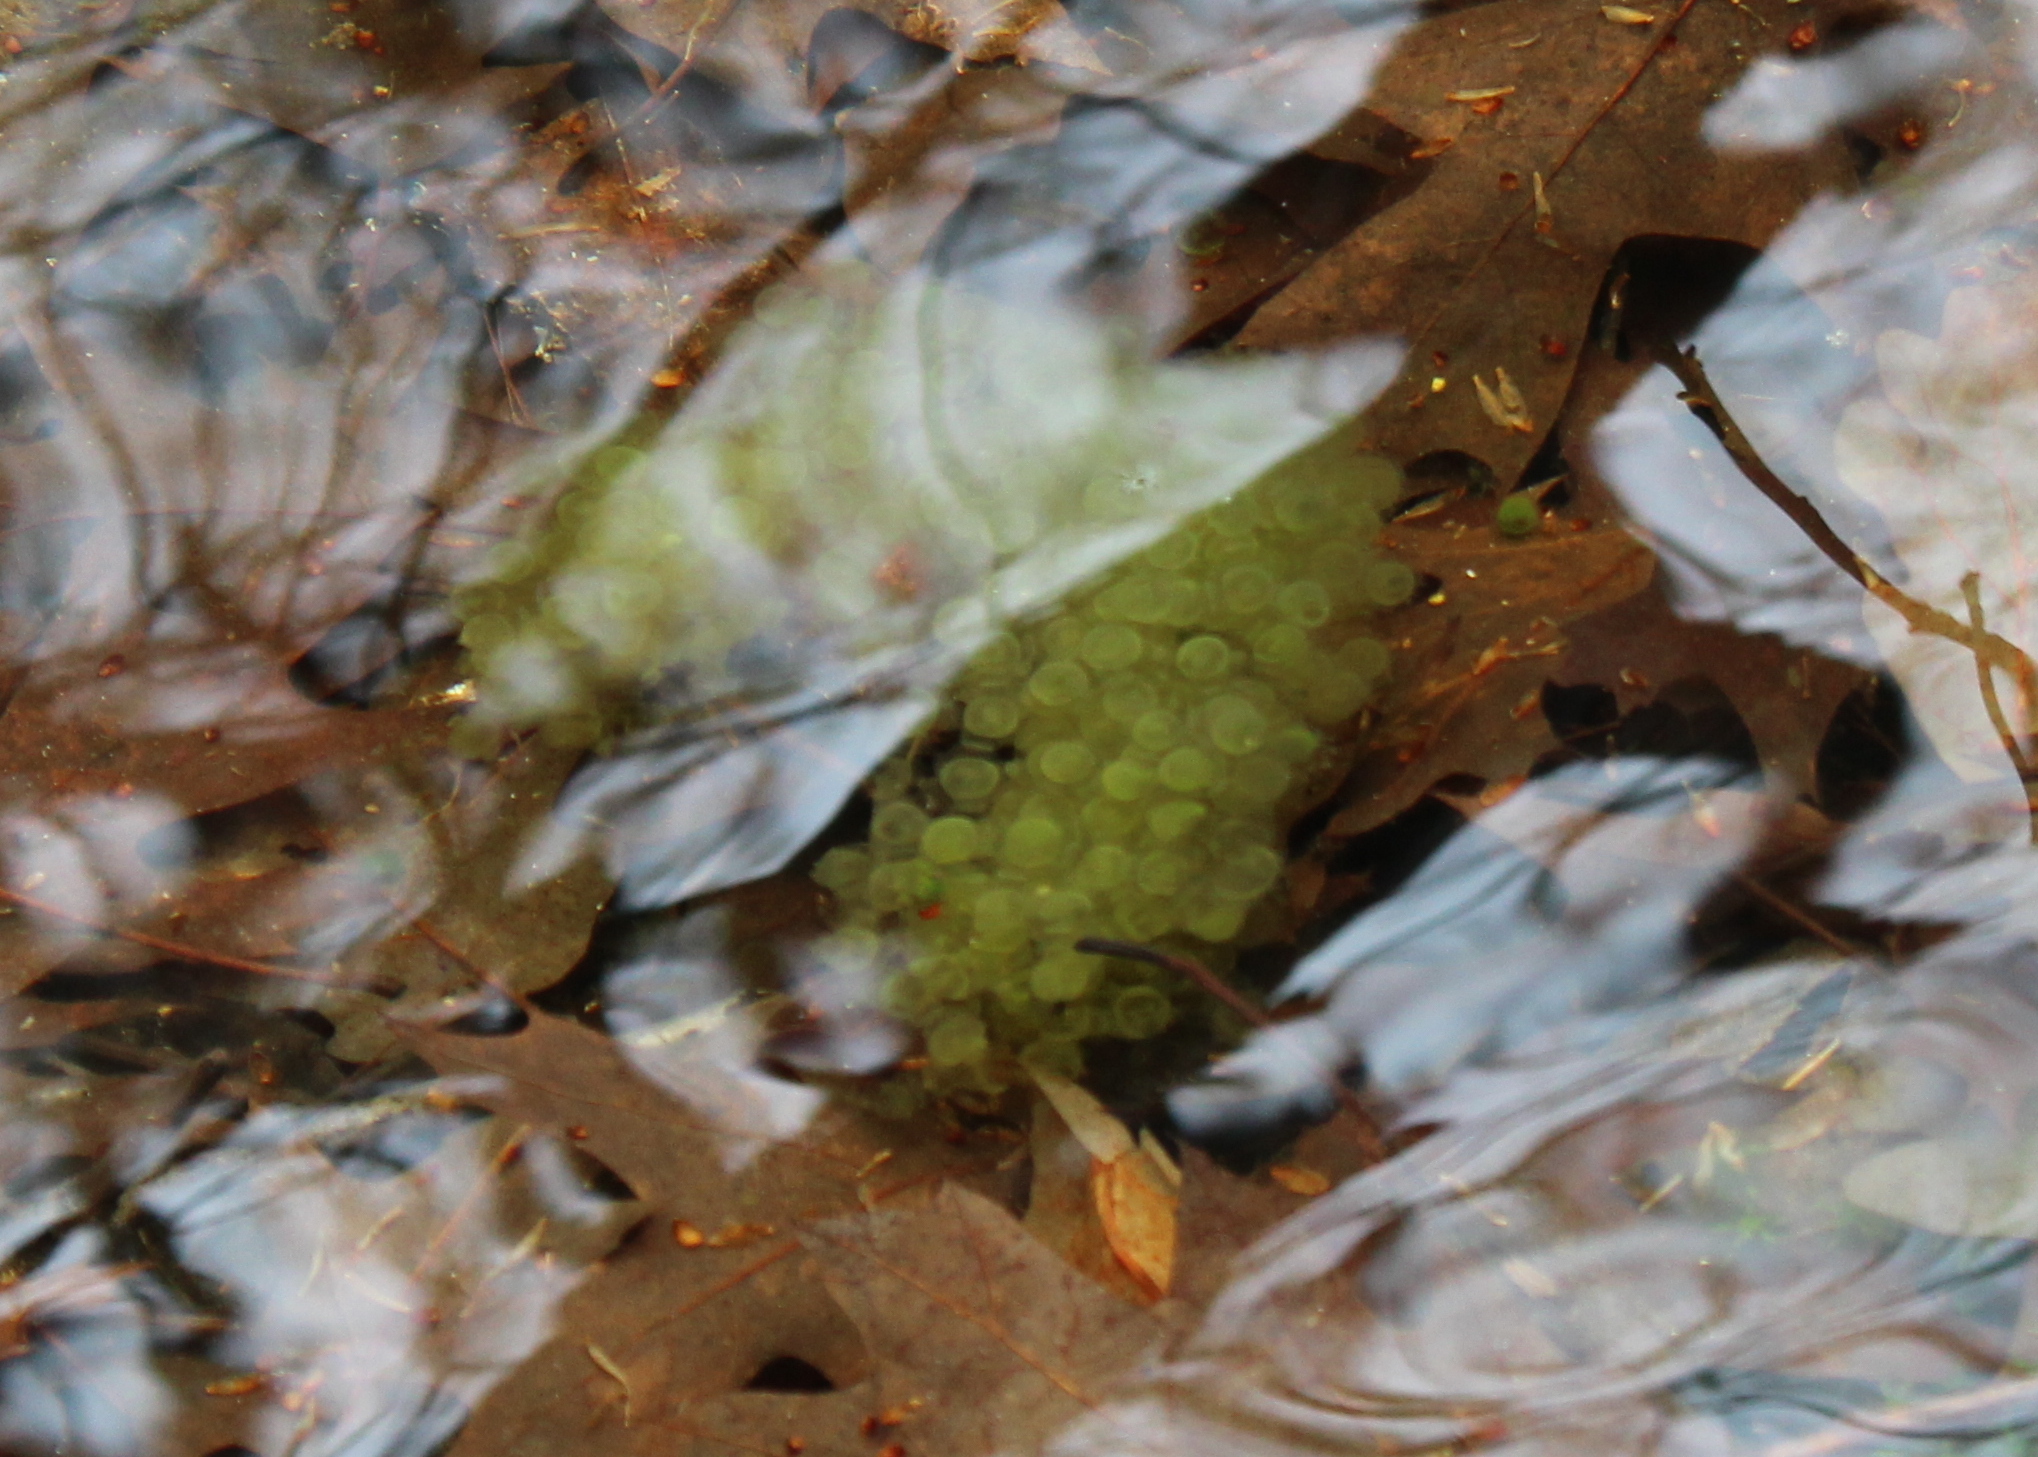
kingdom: Animalia
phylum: Chordata
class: Amphibia
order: Anura
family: Ranidae
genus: Lithobates
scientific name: Lithobates sylvaticus
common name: Wood frog
